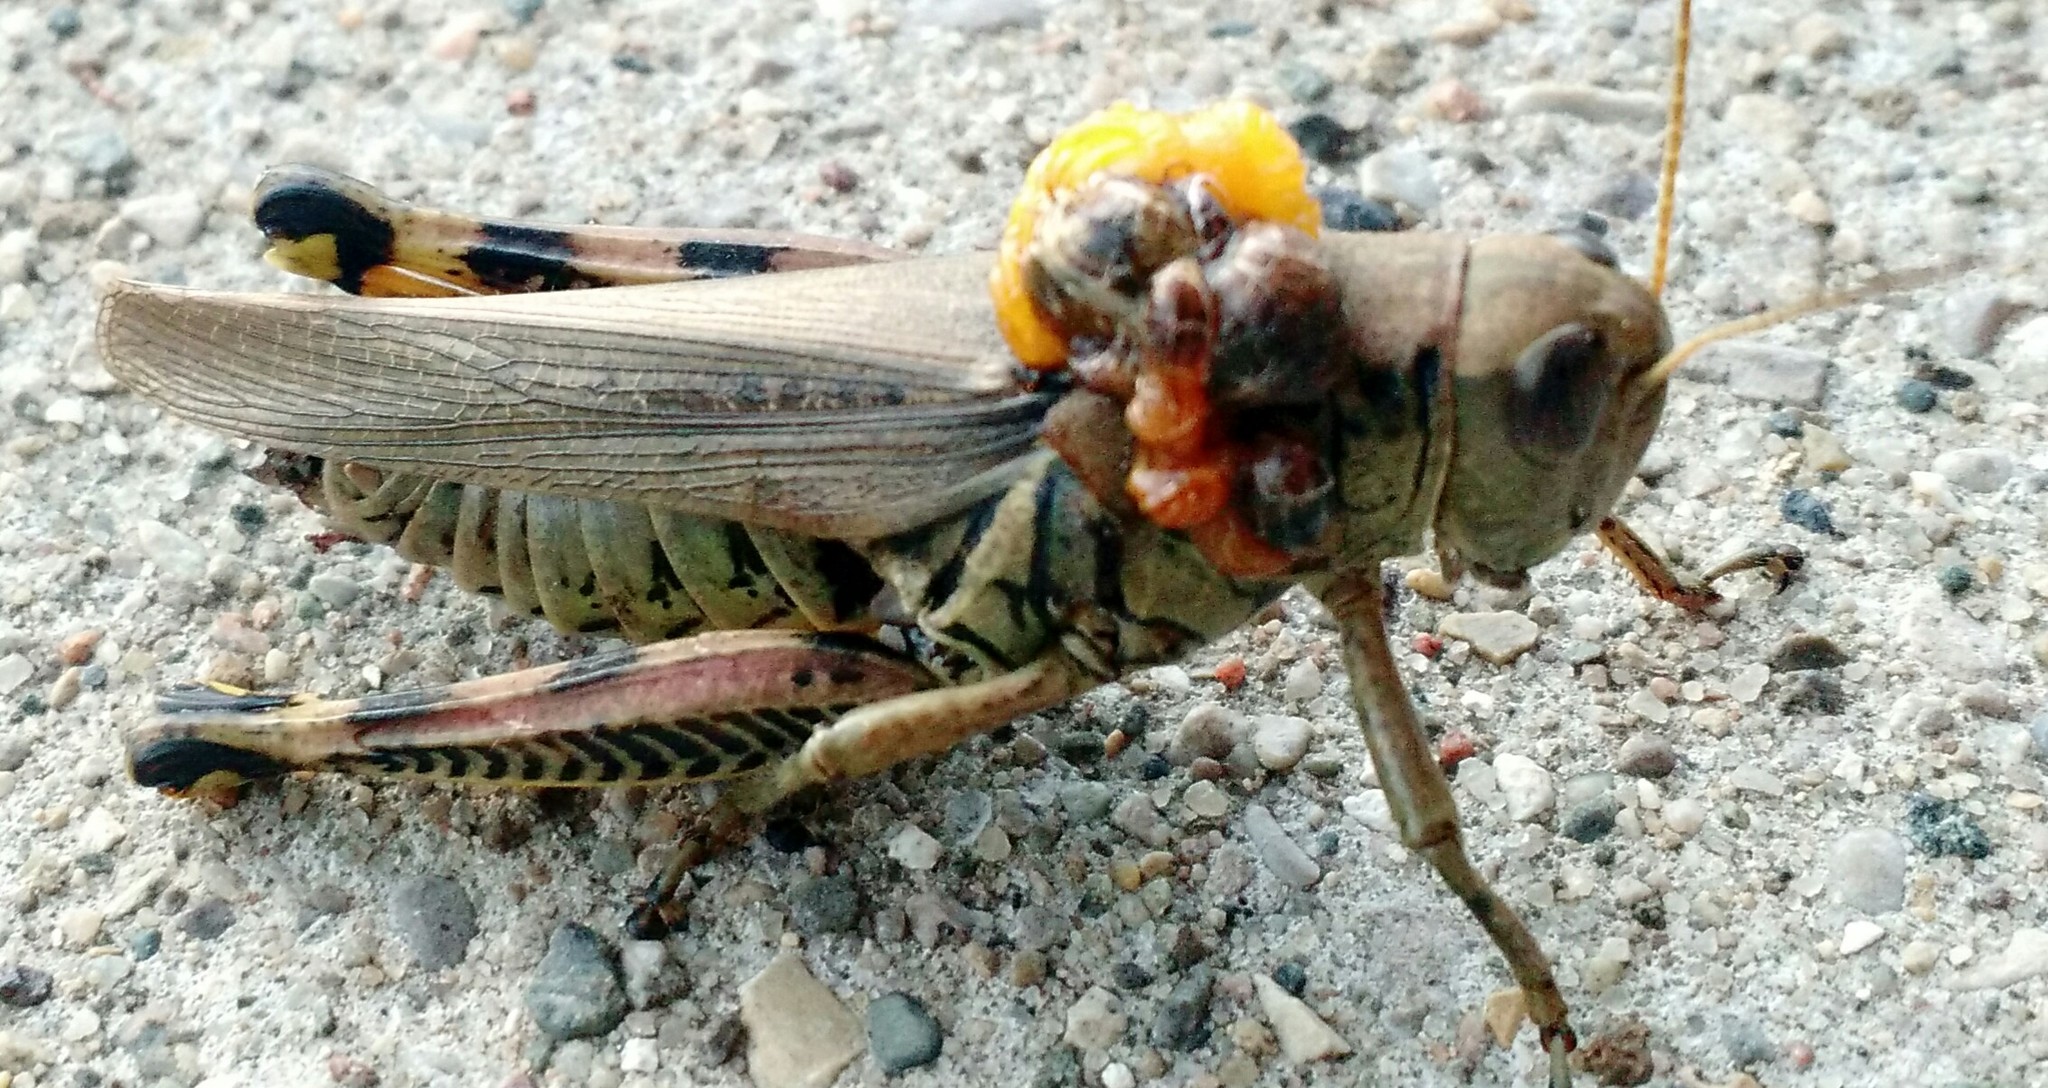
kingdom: Animalia
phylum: Arthropoda
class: Insecta
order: Orthoptera
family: Acrididae
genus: Melanoplus
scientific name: Melanoplus differentialis
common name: Differential grasshopper
